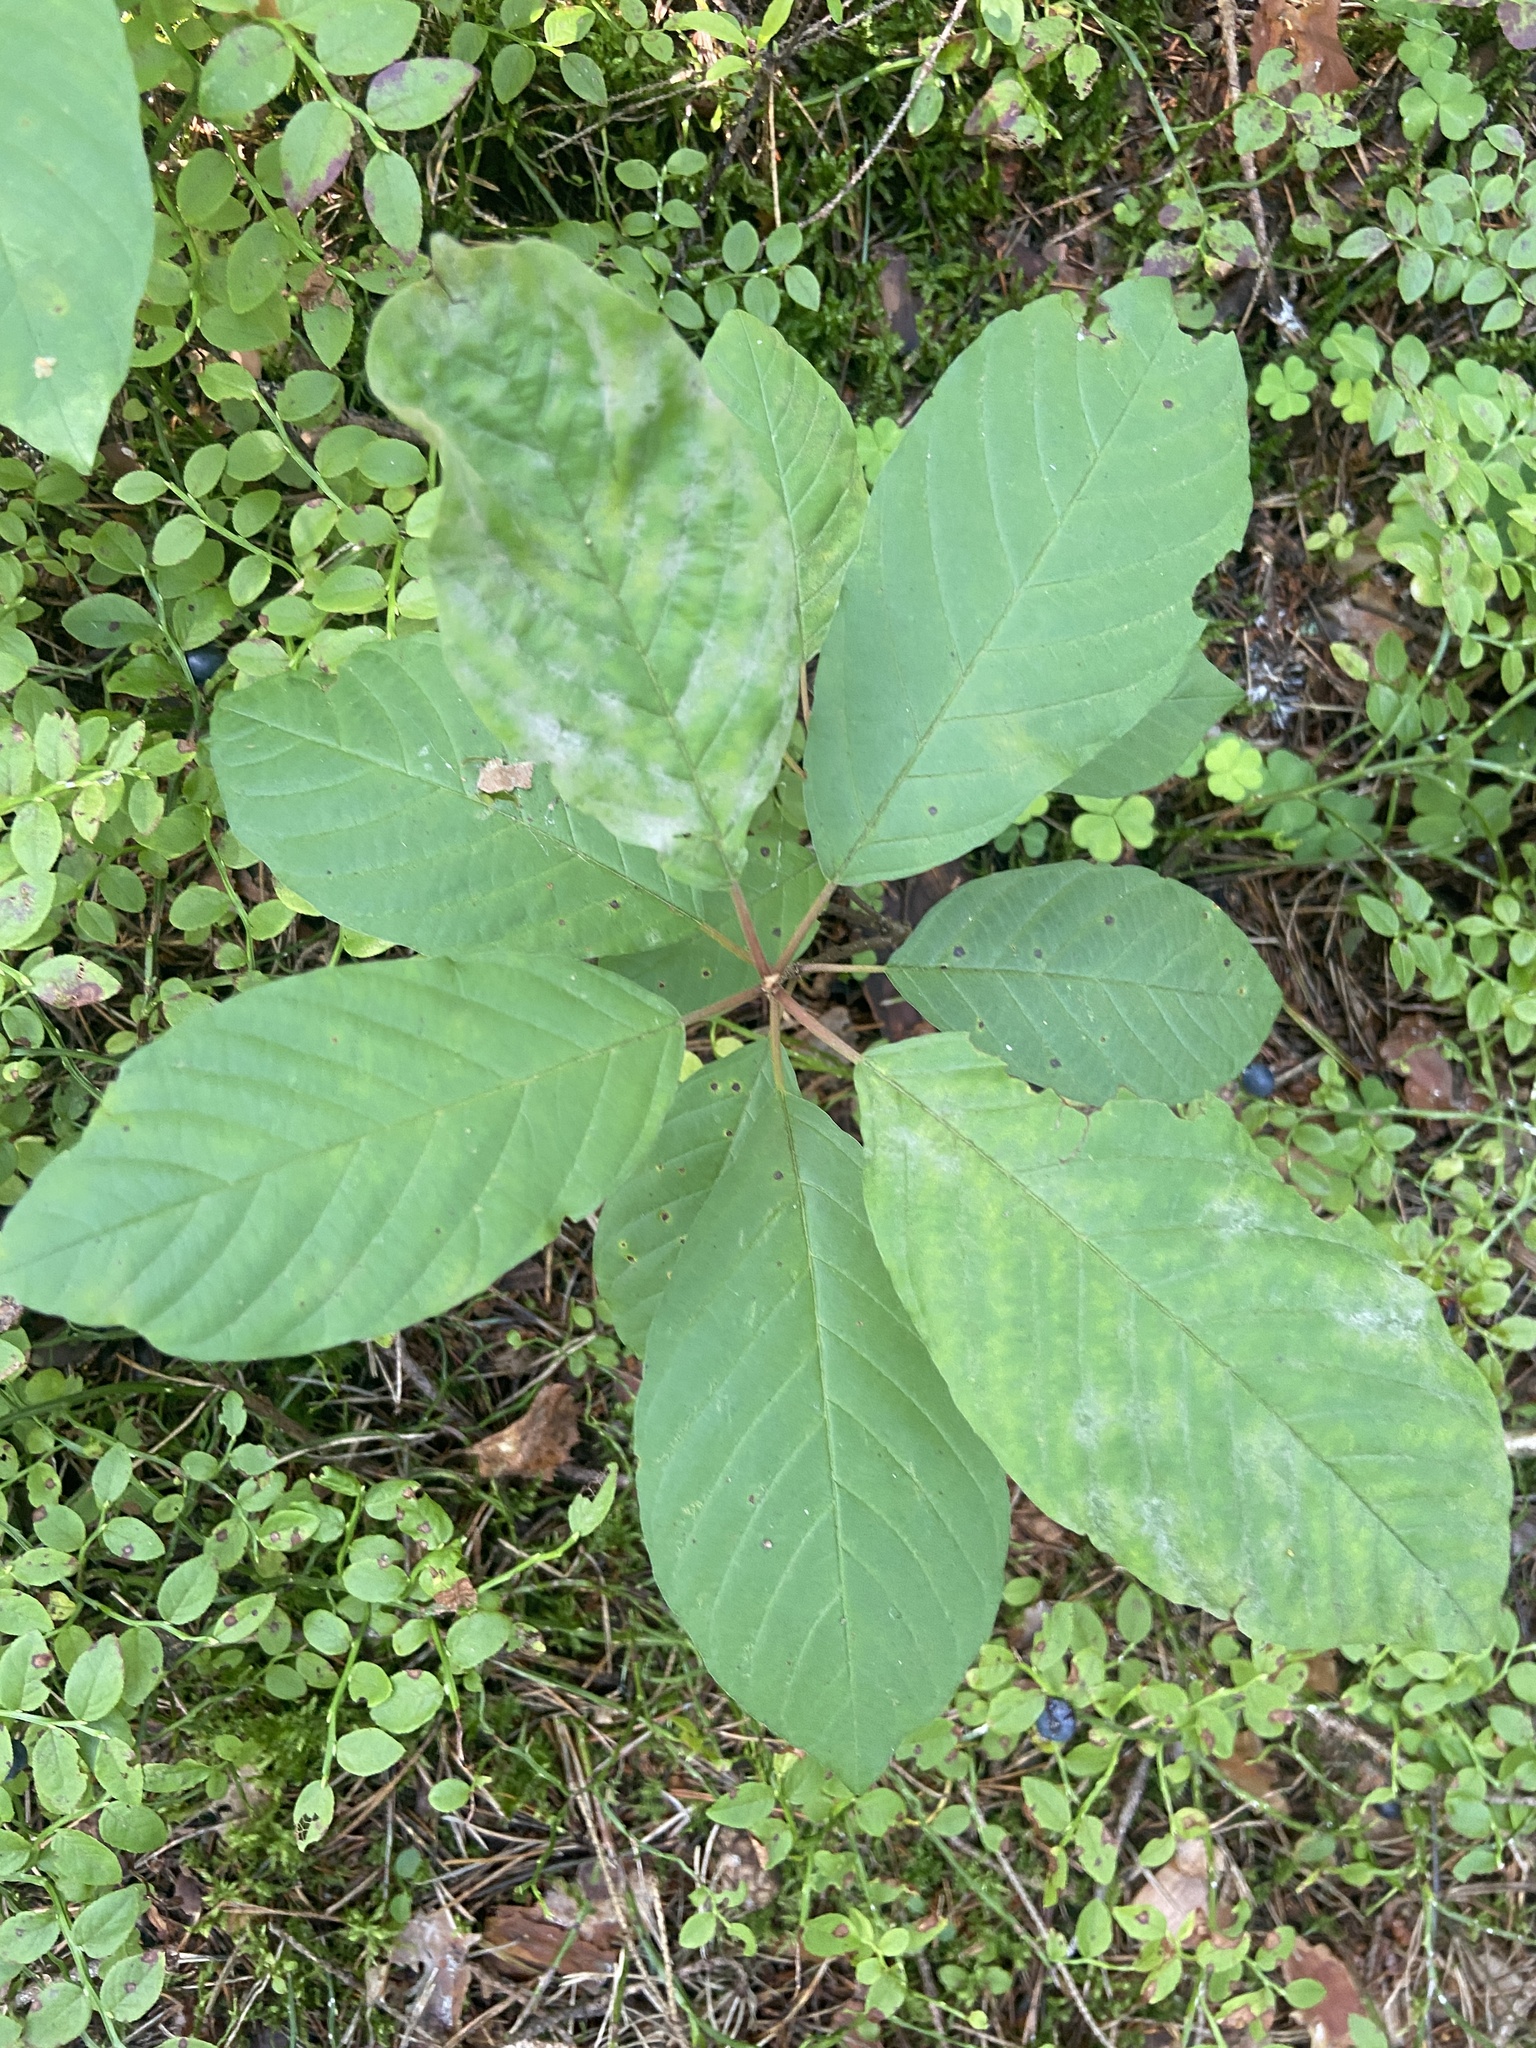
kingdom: Plantae
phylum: Tracheophyta
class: Magnoliopsida
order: Rosales
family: Rhamnaceae
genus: Frangula
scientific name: Frangula alnus
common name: Alder buckthorn
